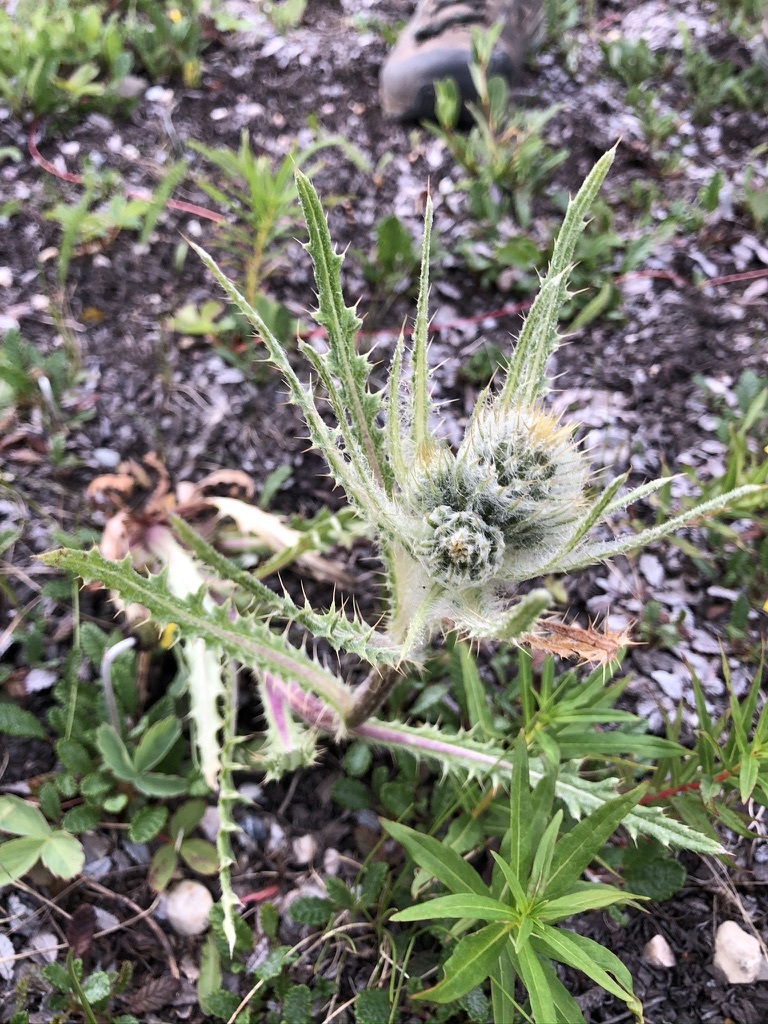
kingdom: Plantae
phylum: Tracheophyta
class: Magnoliopsida
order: Asterales
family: Asteraceae
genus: Cirsium
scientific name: Cirsium hookerianum
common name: Hooker's thistle
